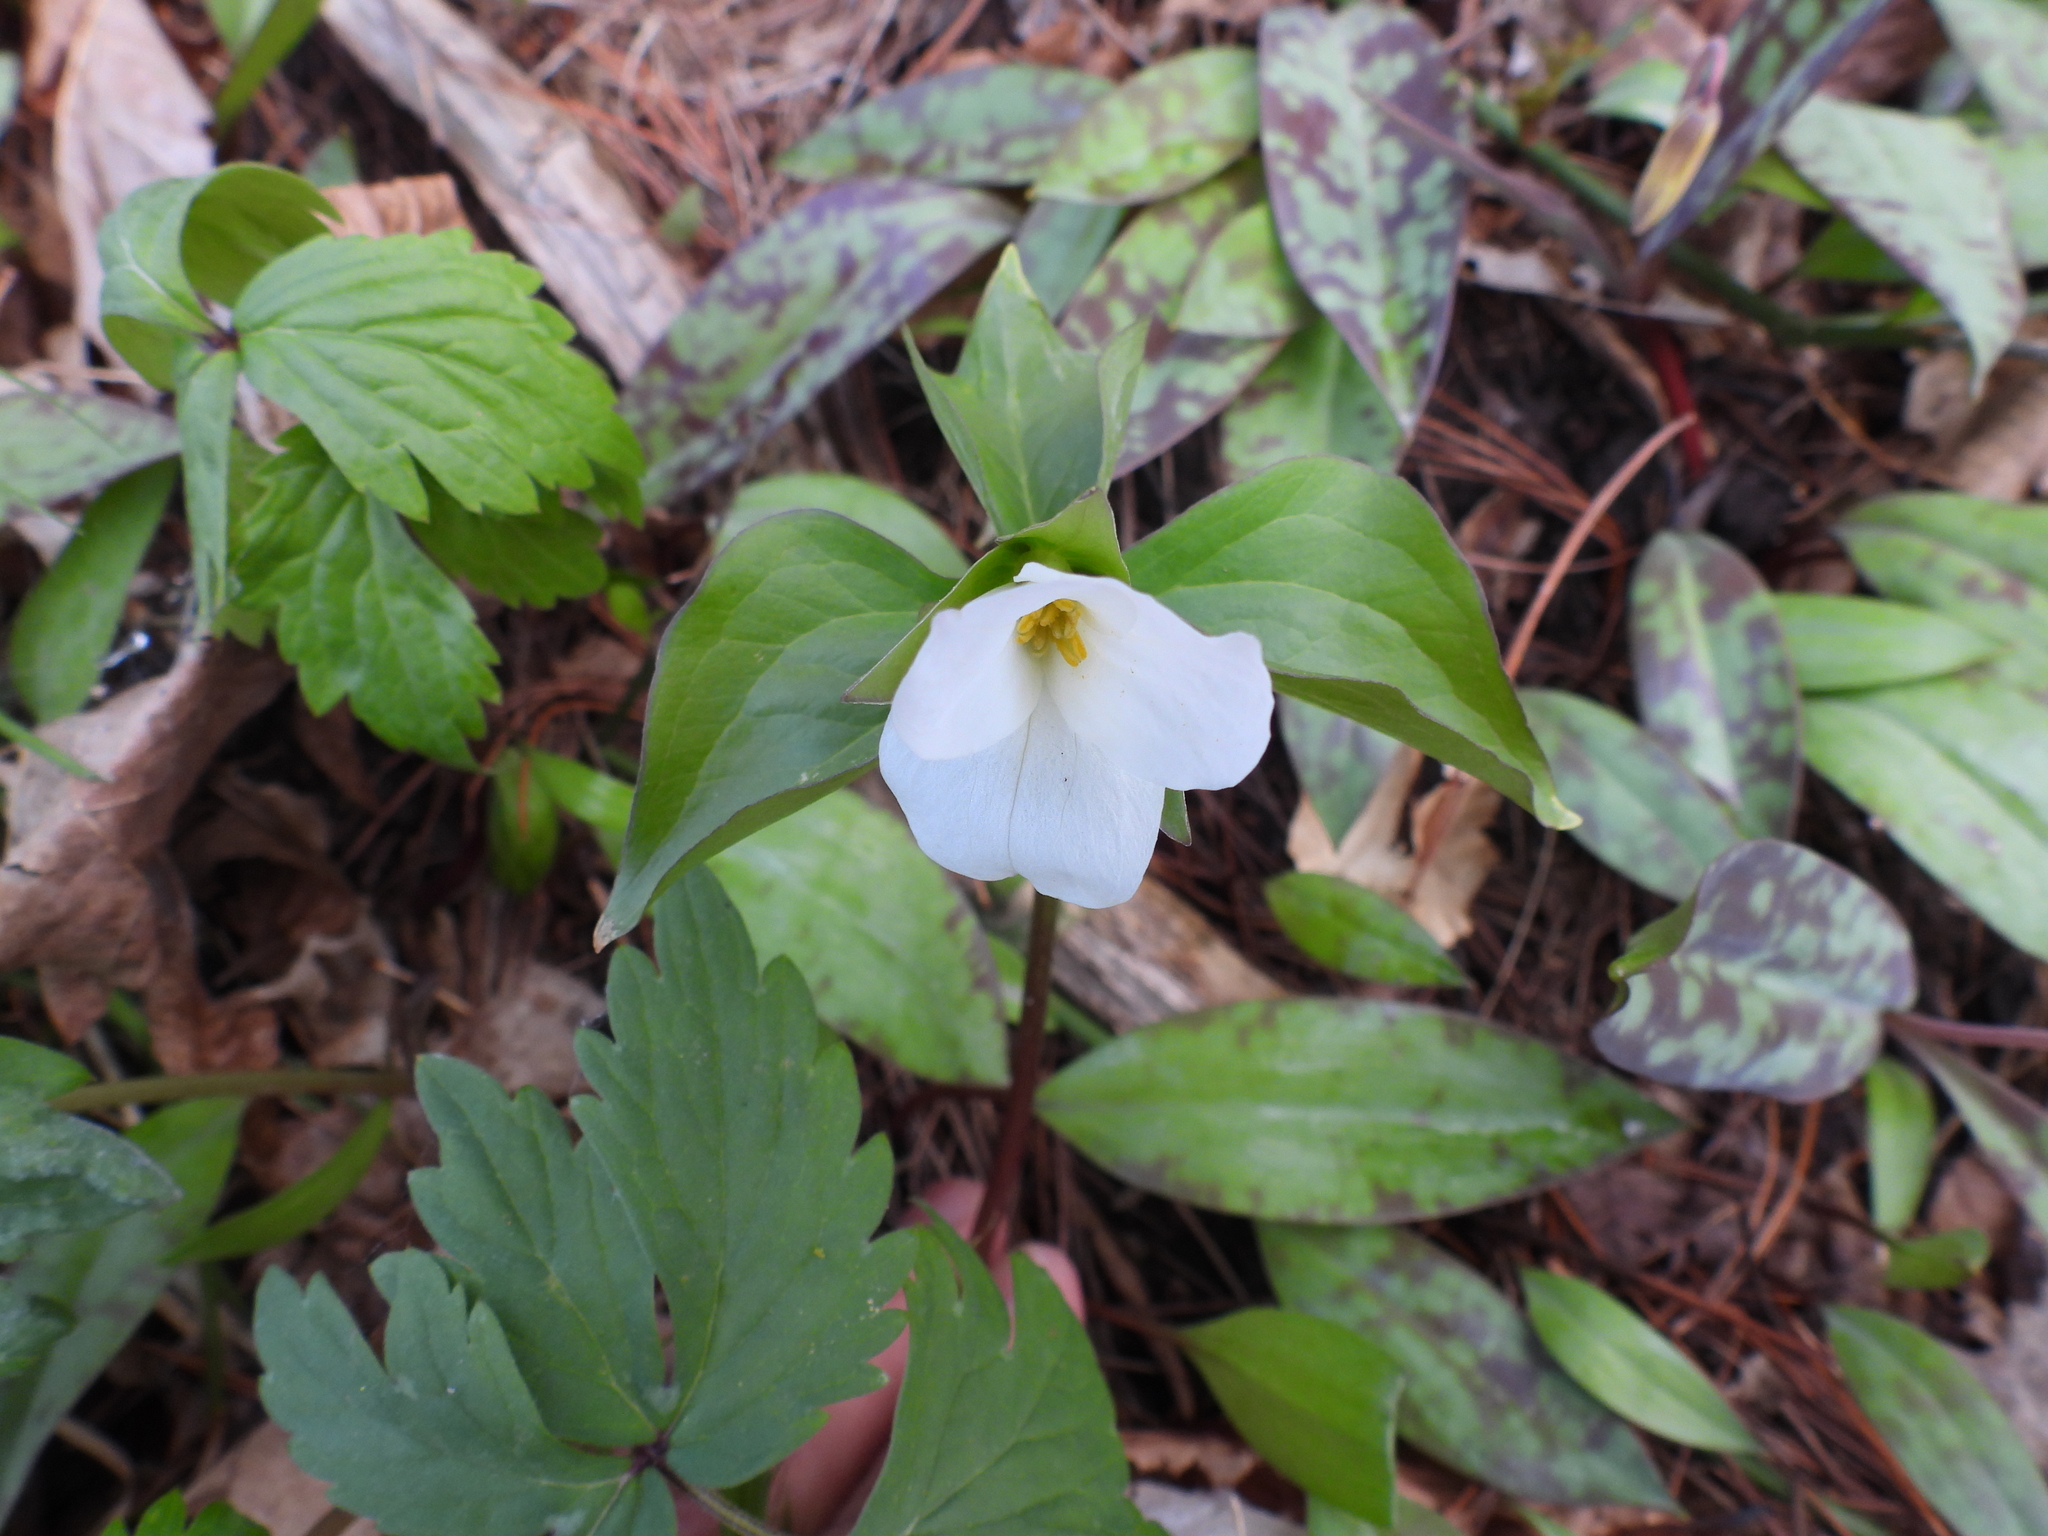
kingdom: Plantae
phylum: Tracheophyta
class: Liliopsida
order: Liliales
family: Melanthiaceae
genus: Trillium
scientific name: Trillium grandiflorum
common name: Great white trillium
